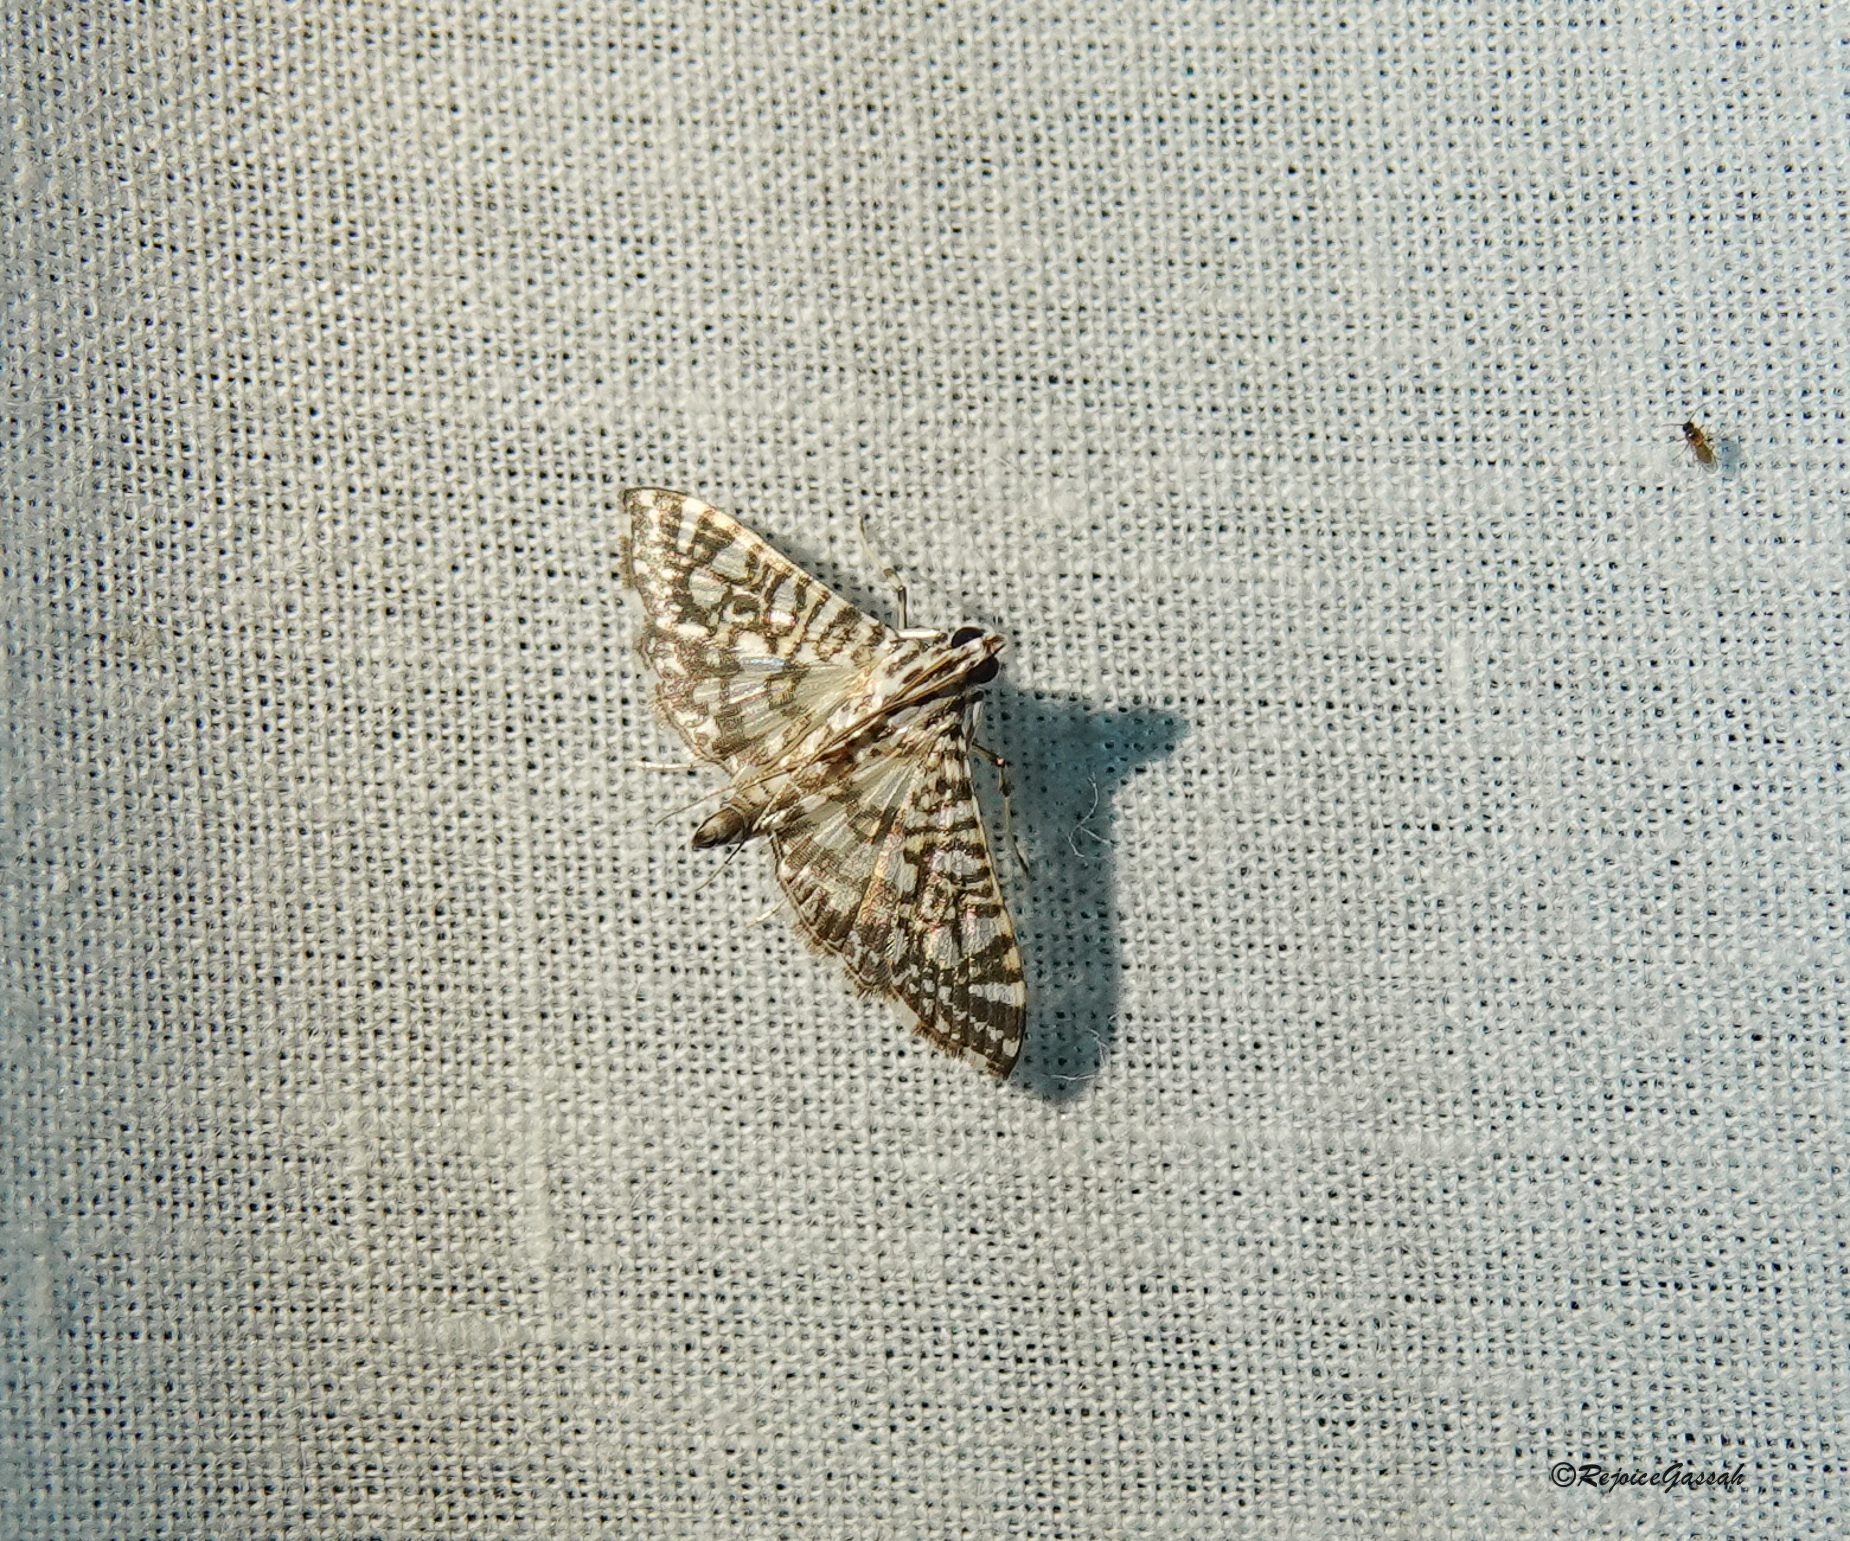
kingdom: Animalia
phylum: Arthropoda
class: Insecta
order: Lepidoptera
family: Crambidae
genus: Glyphodes
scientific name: Glyphodes onychinalis
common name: Swan plant moth
